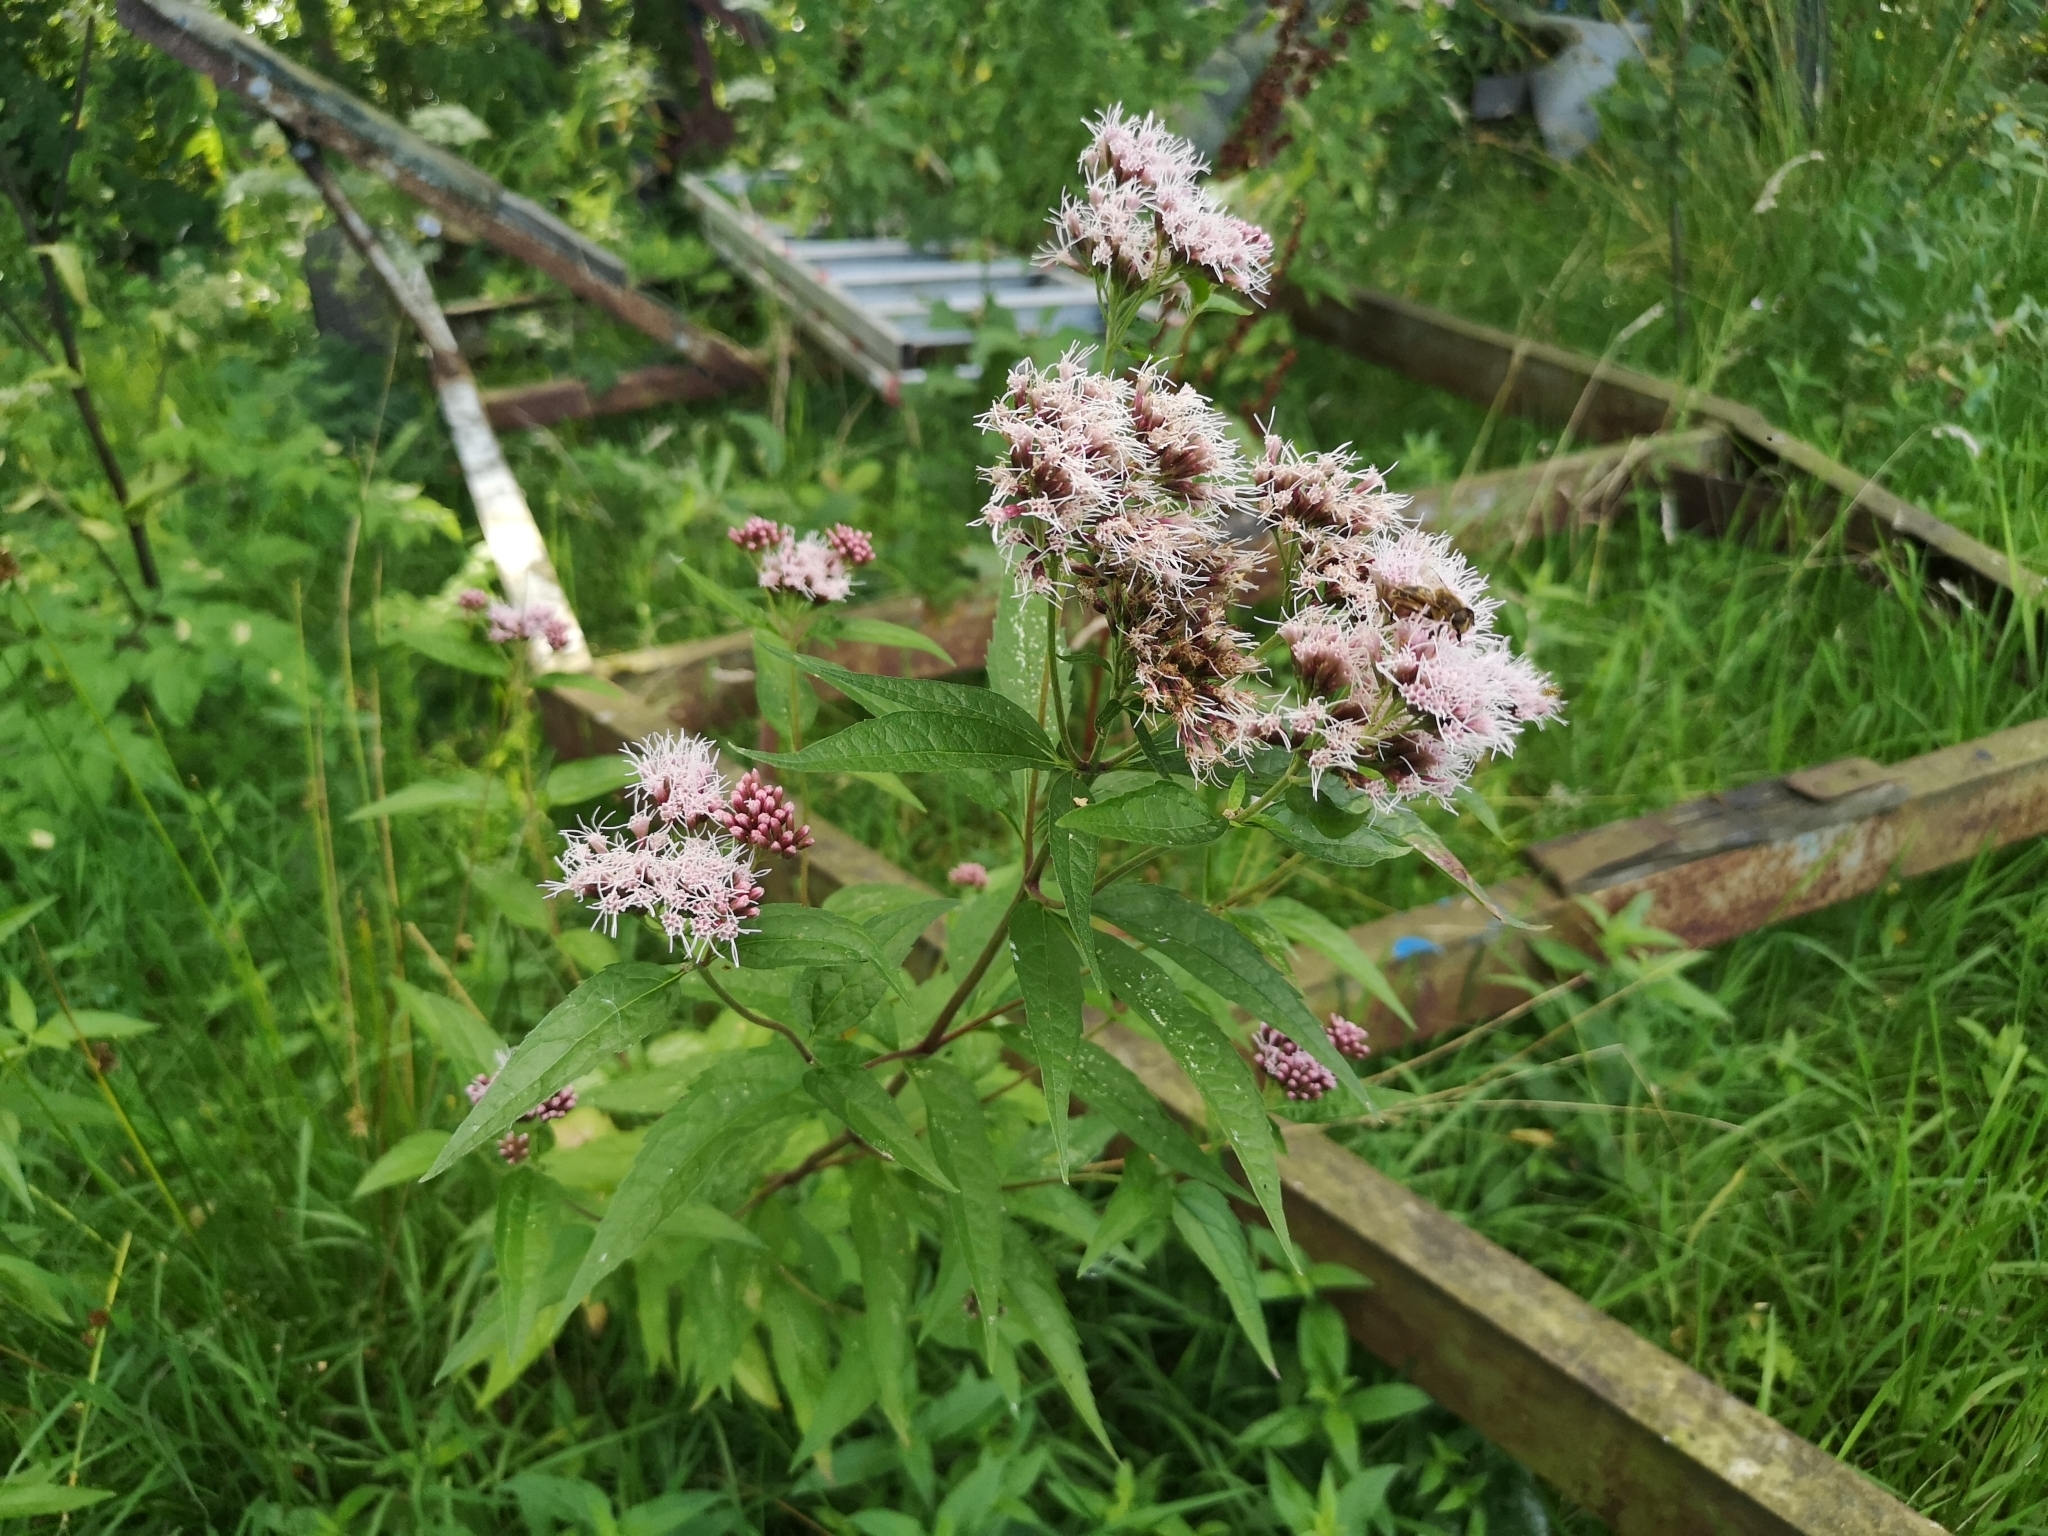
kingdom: Plantae
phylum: Tracheophyta
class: Magnoliopsida
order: Asterales
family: Asteraceae
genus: Eupatorium
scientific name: Eupatorium cannabinum
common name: Hemp-agrimony
